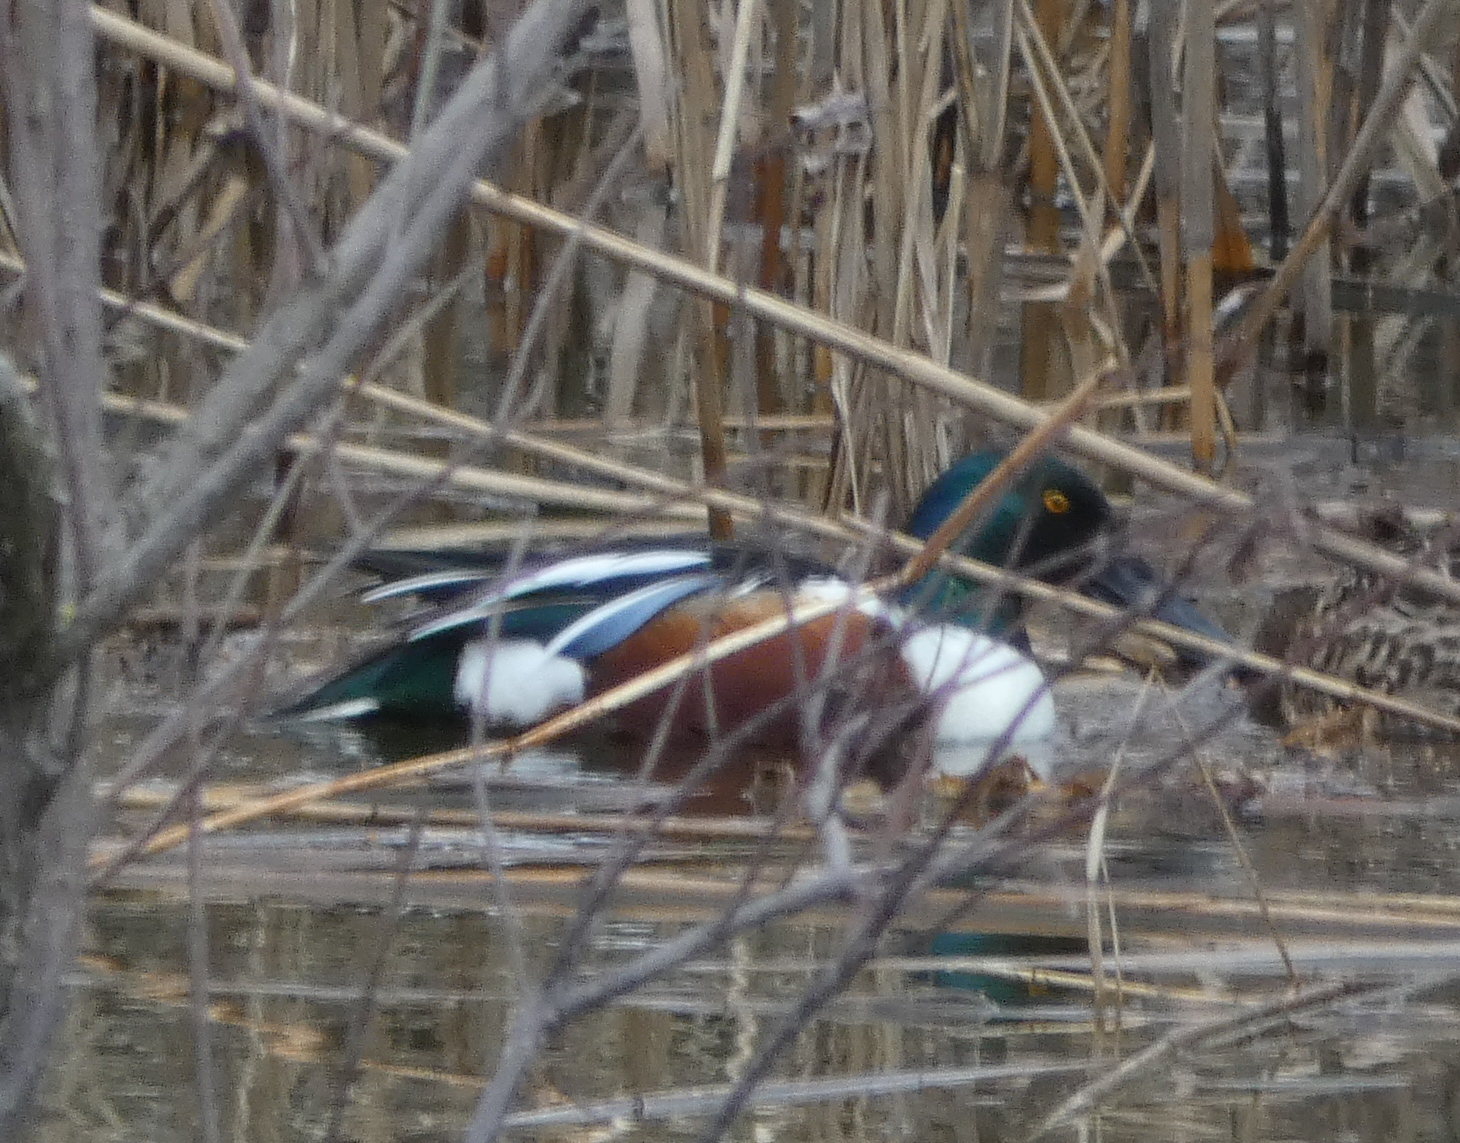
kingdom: Animalia
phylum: Chordata
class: Aves
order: Anseriformes
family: Anatidae
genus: Spatula
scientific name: Spatula clypeata
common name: Northern shoveler
